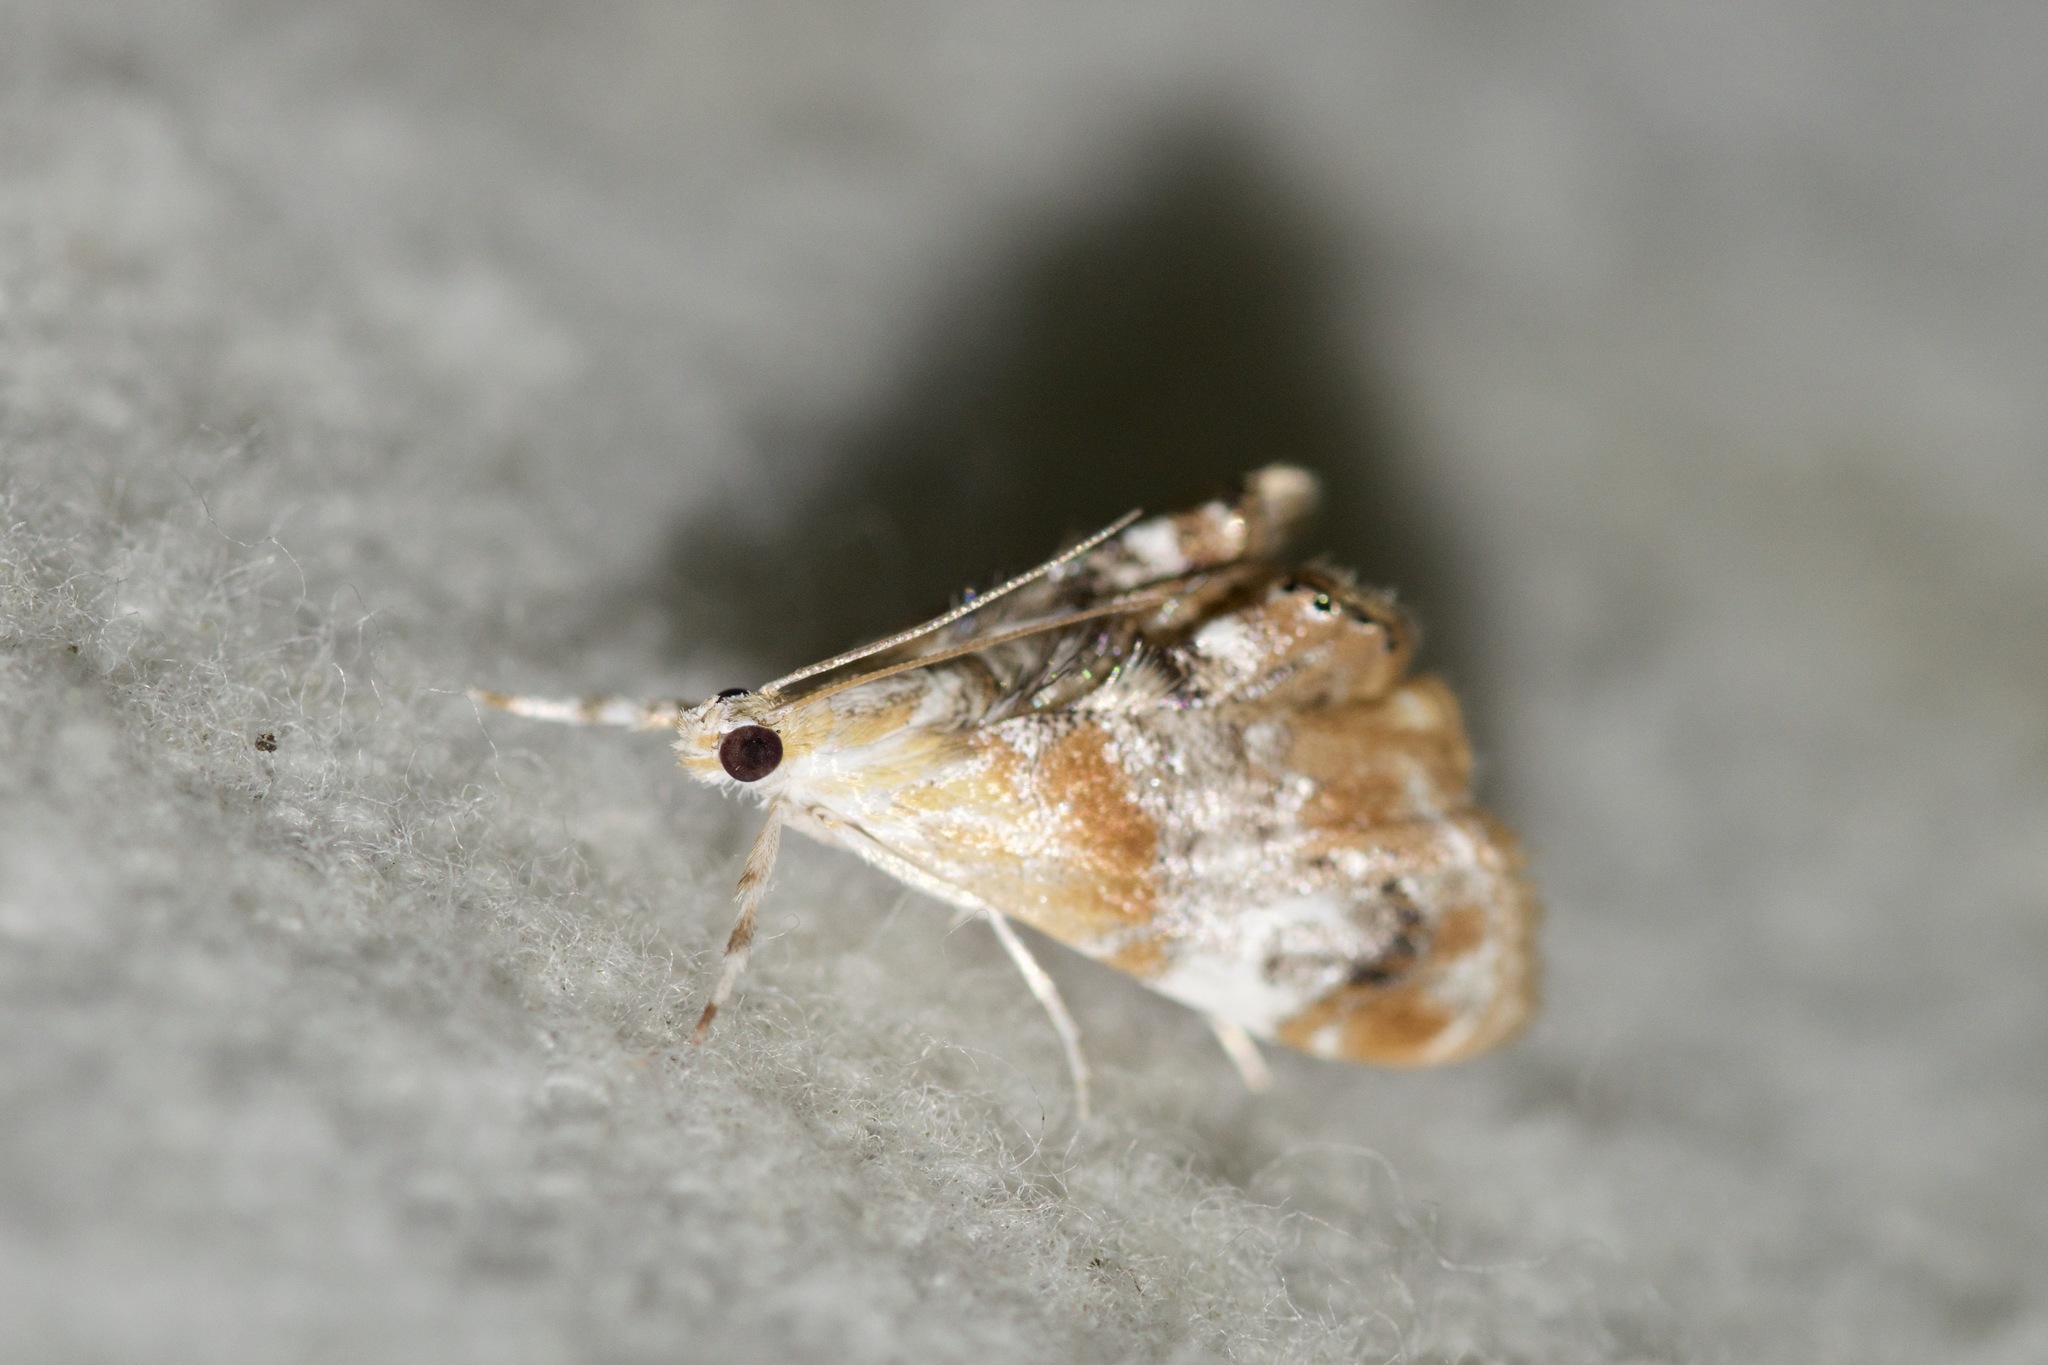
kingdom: Animalia
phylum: Arthropoda
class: Insecta
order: Lepidoptera
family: Crambidae
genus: Dicymolomia
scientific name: Dicymolomia julianalis
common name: Julia's dicymolomia moth
